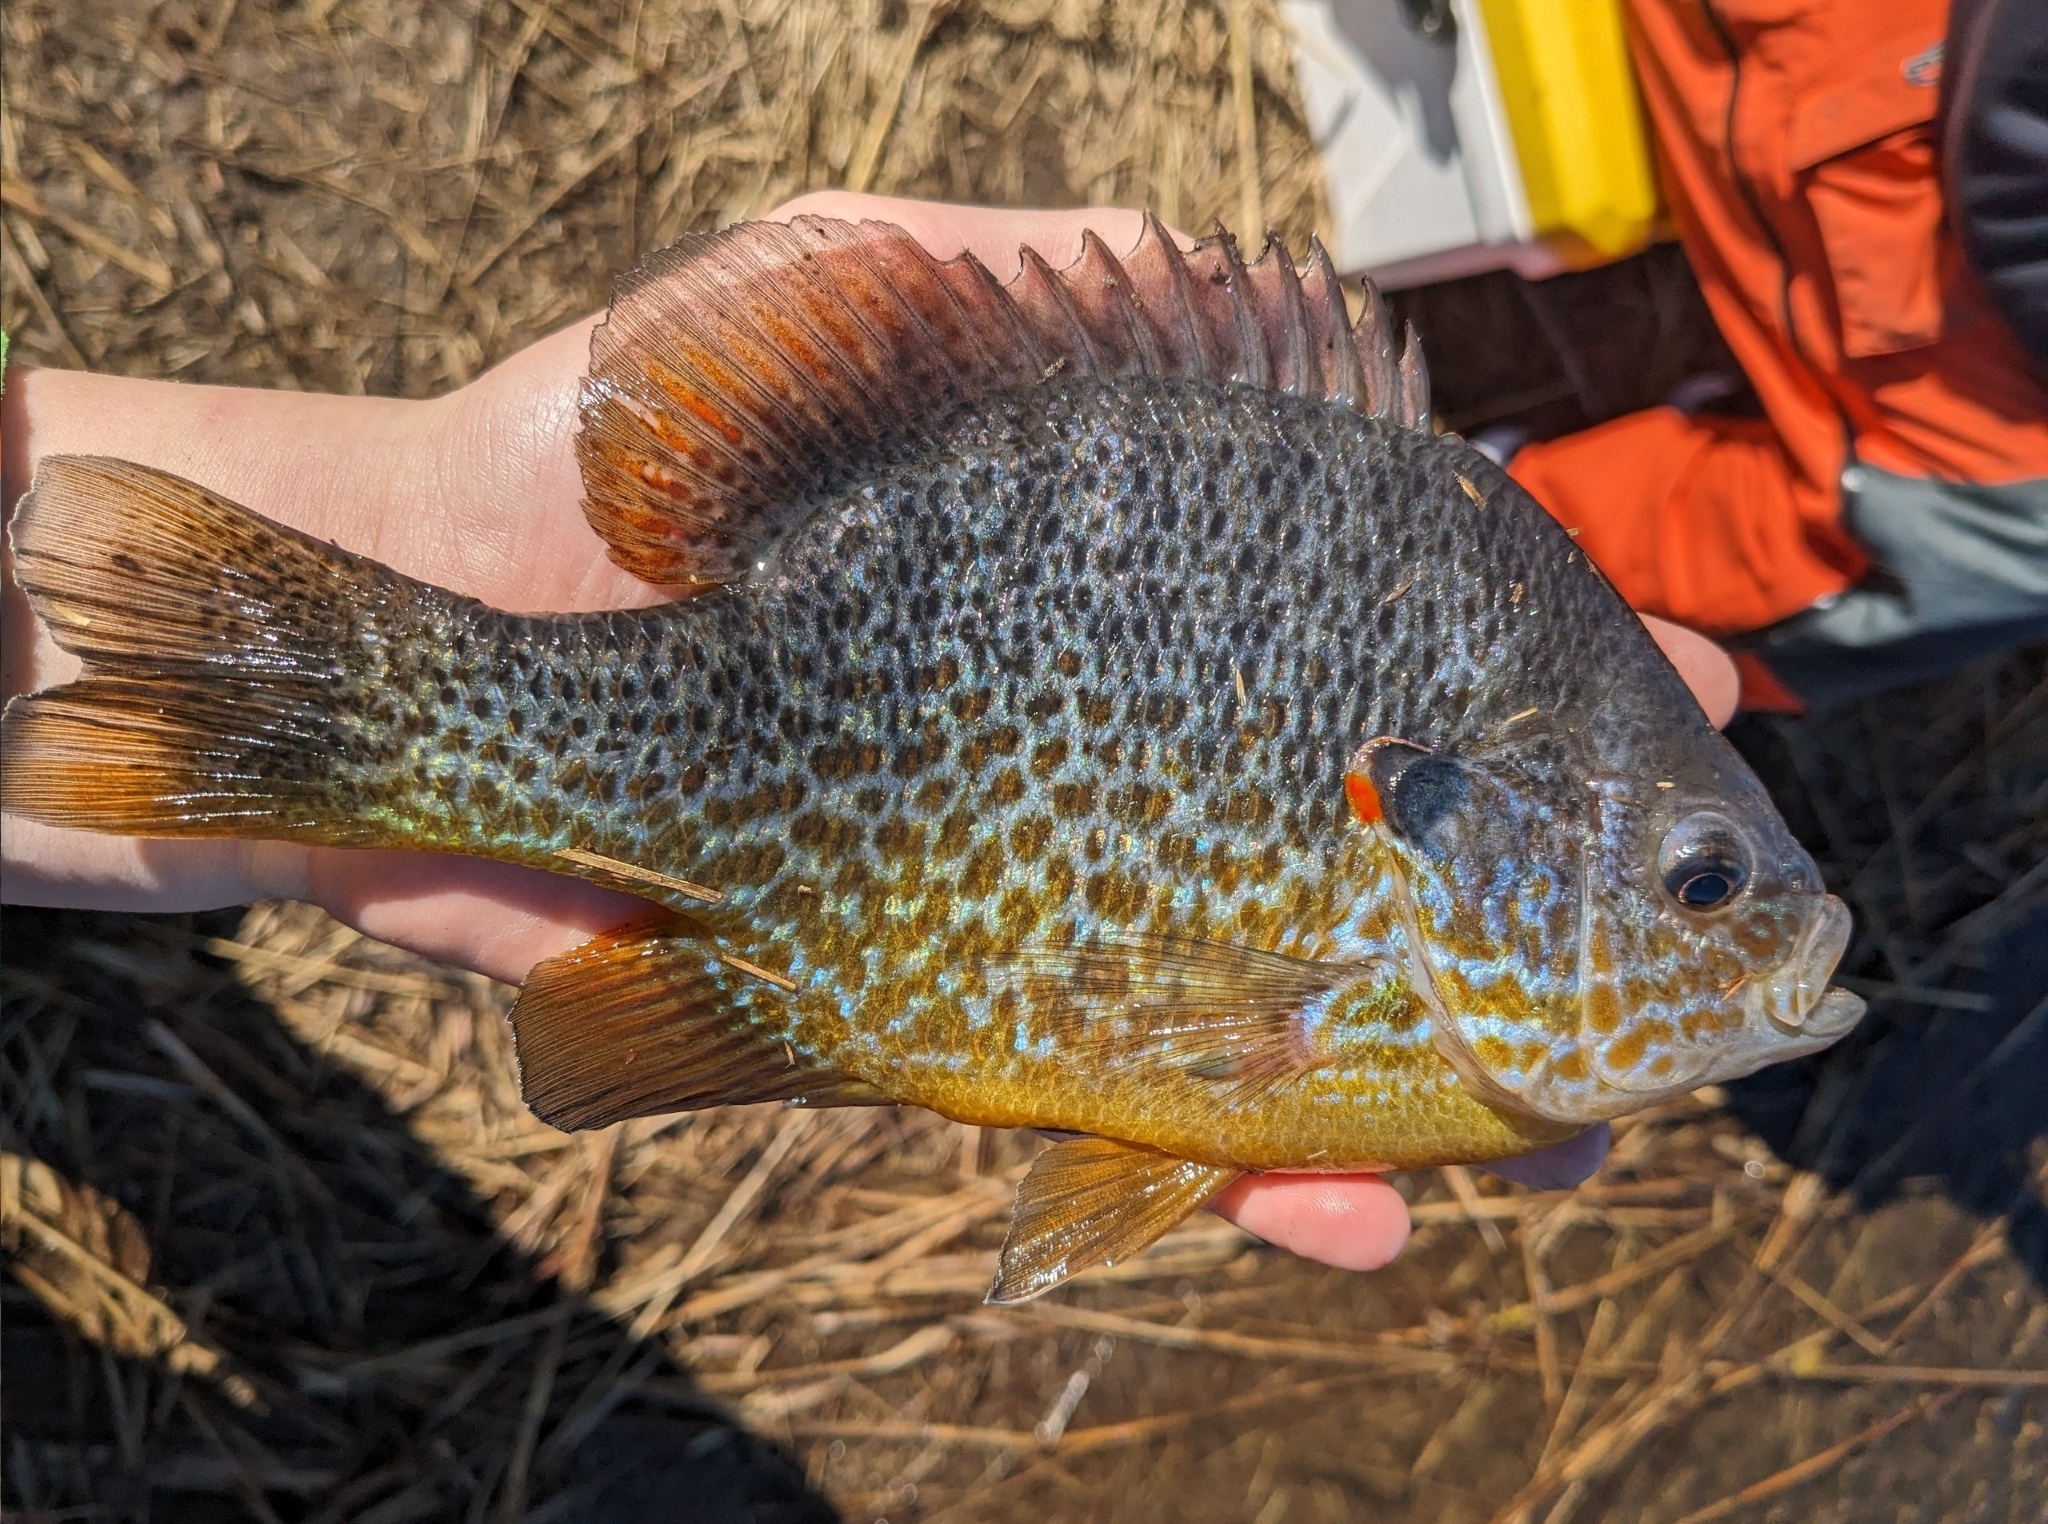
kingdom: Animalia
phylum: Chordata
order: Perciformes
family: Centrarchidae
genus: Lepomis
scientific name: Lepomis gibbosus
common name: Pumpkinseed
